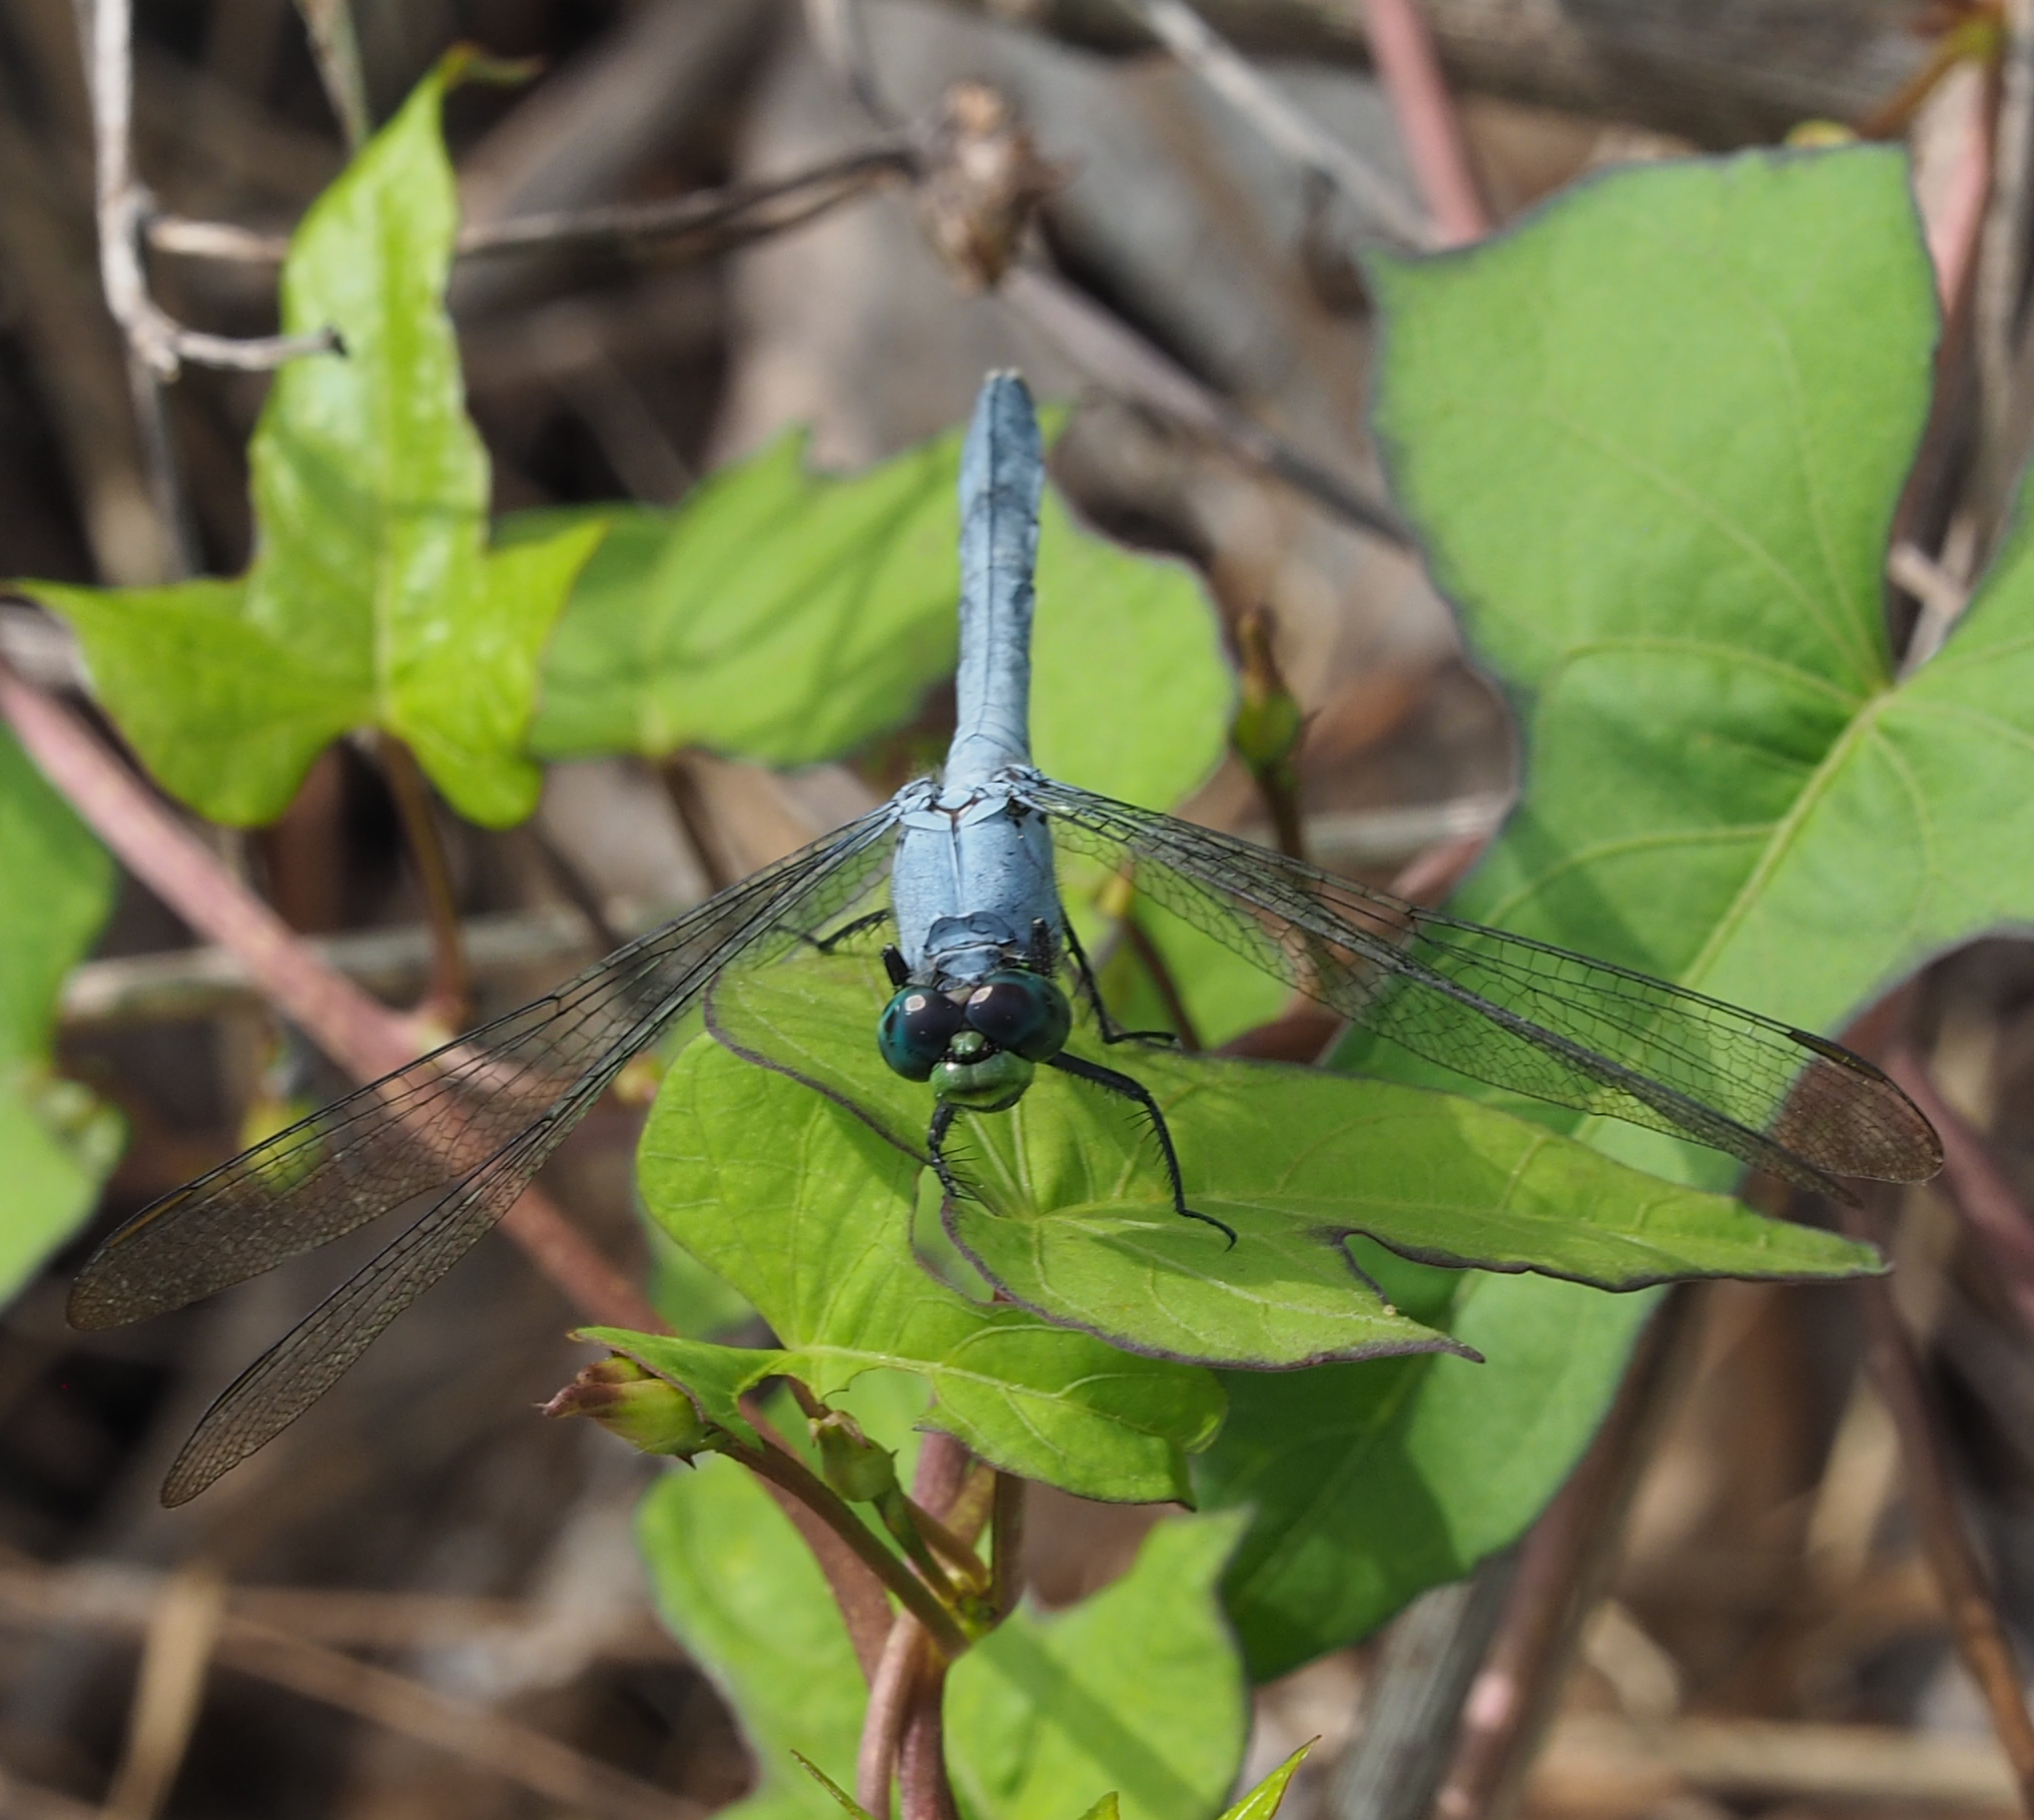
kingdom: Animalia
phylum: Arthropoda
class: Insecta
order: Odonata
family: Libellulidae
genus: Erythemis
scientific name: Erythemis simplicicollis
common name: Eastern pondhawk
